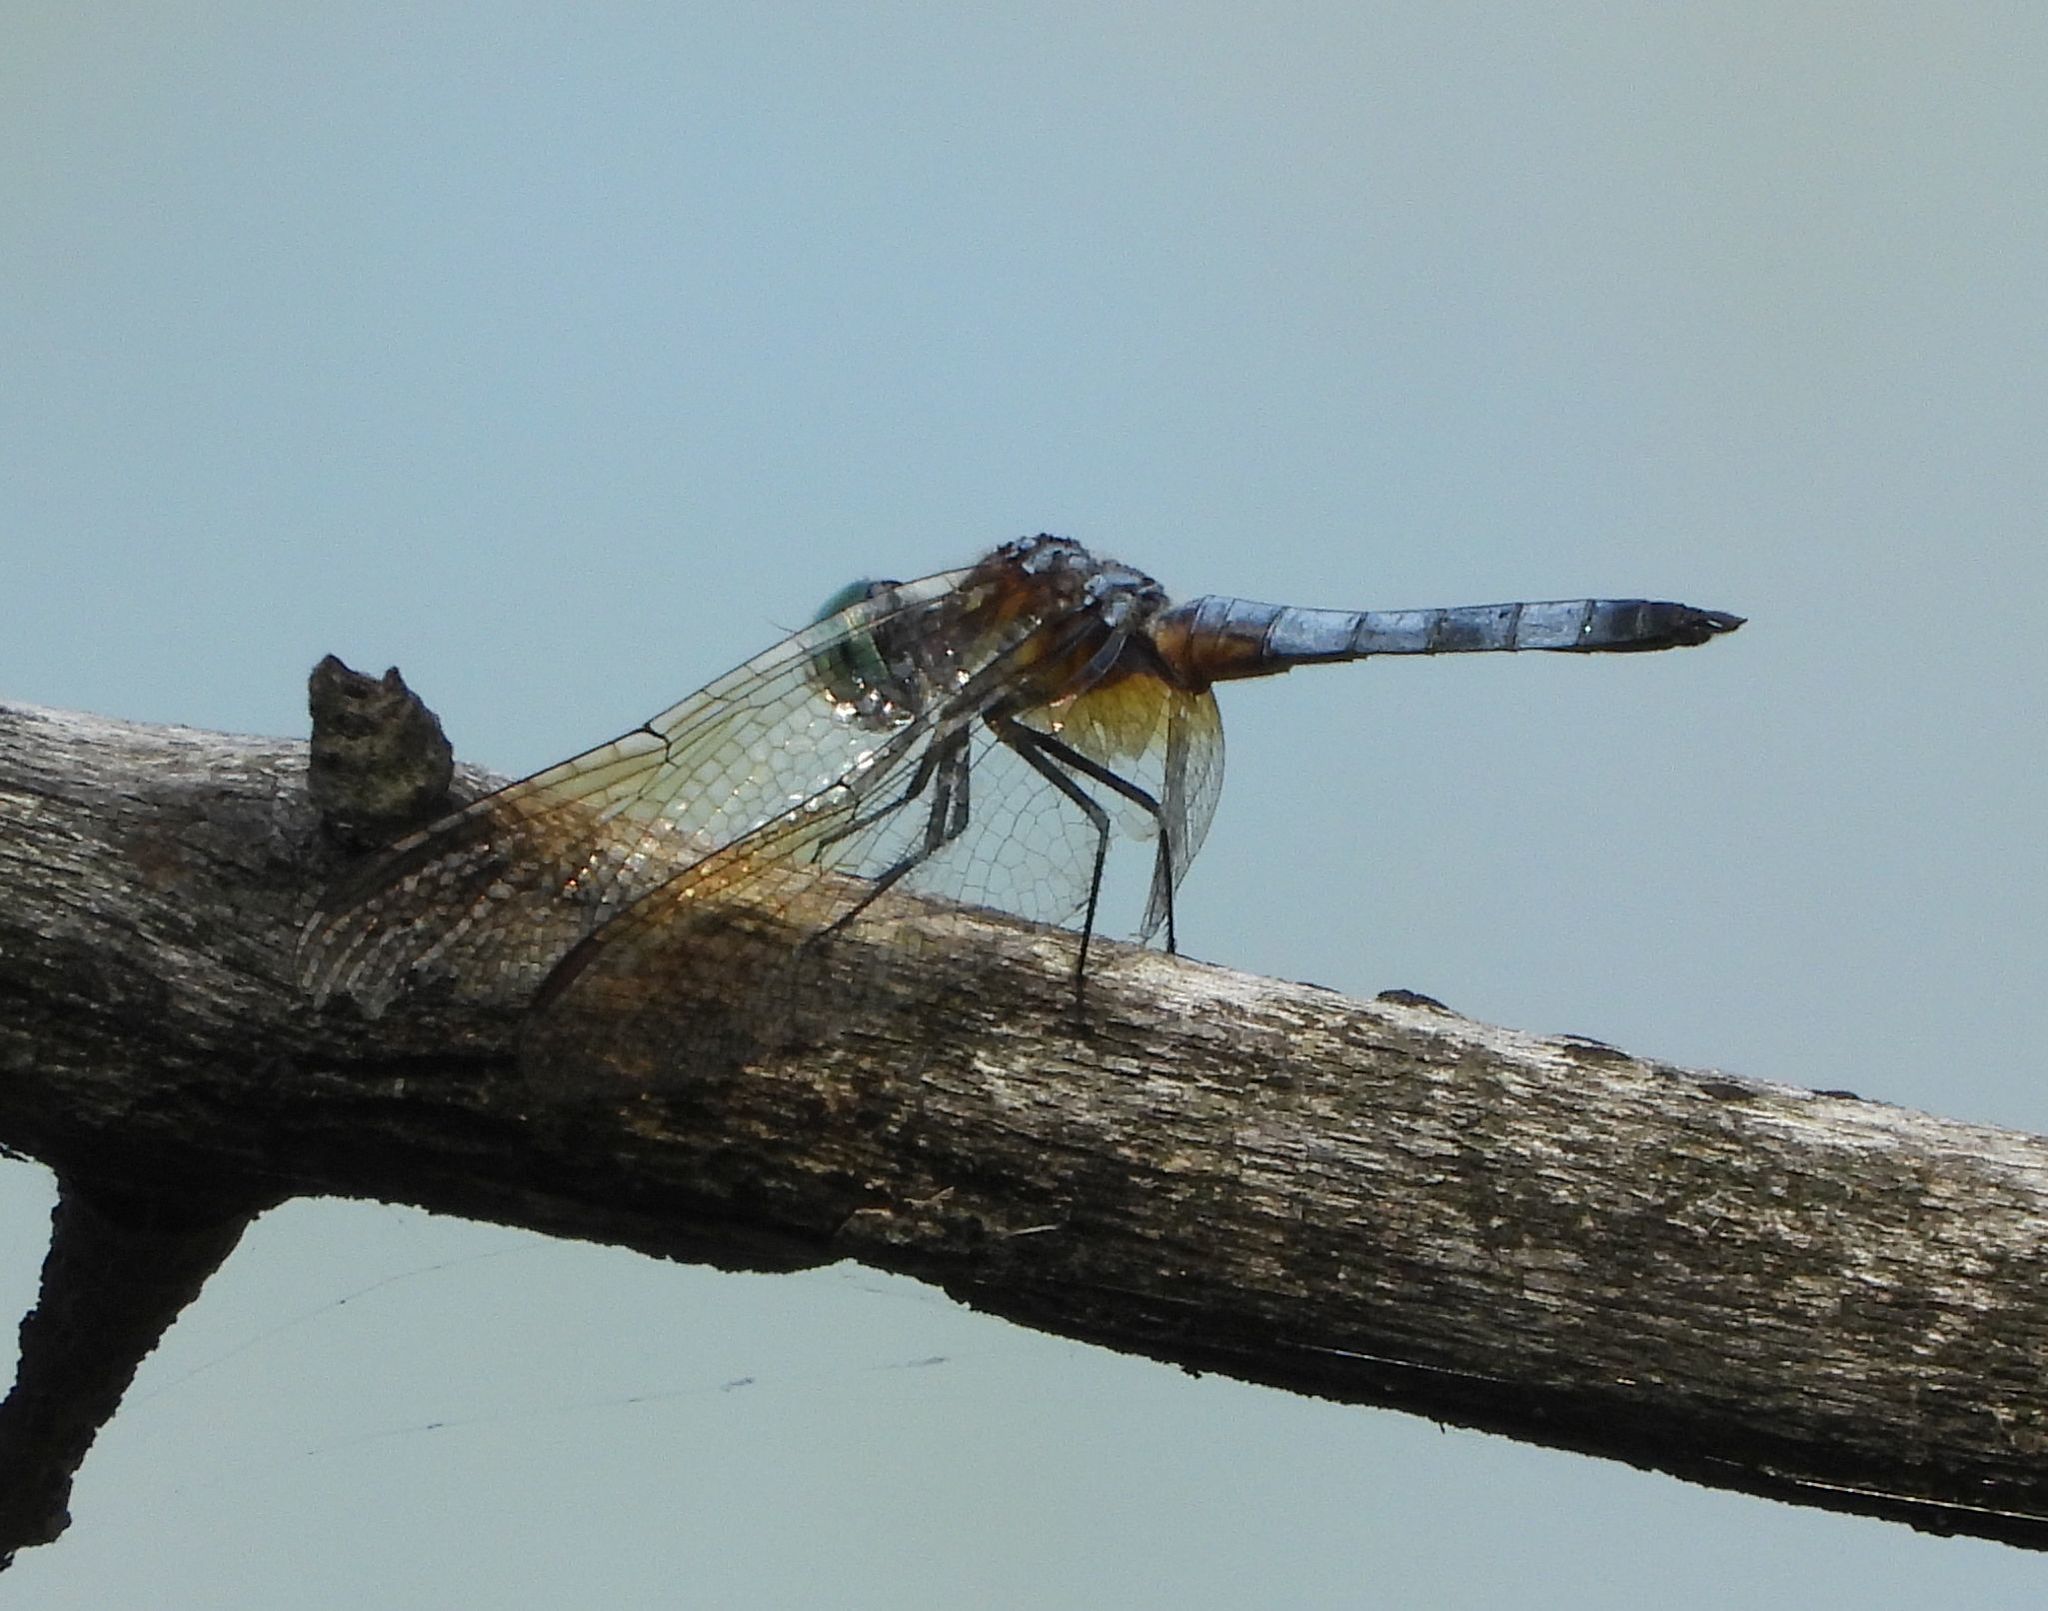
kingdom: Animalia
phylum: Arthropoda
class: Insecta
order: Odonata
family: Libellulidae
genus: Pachydiplax
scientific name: Pachydiplax longipennis
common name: Blue dasher
